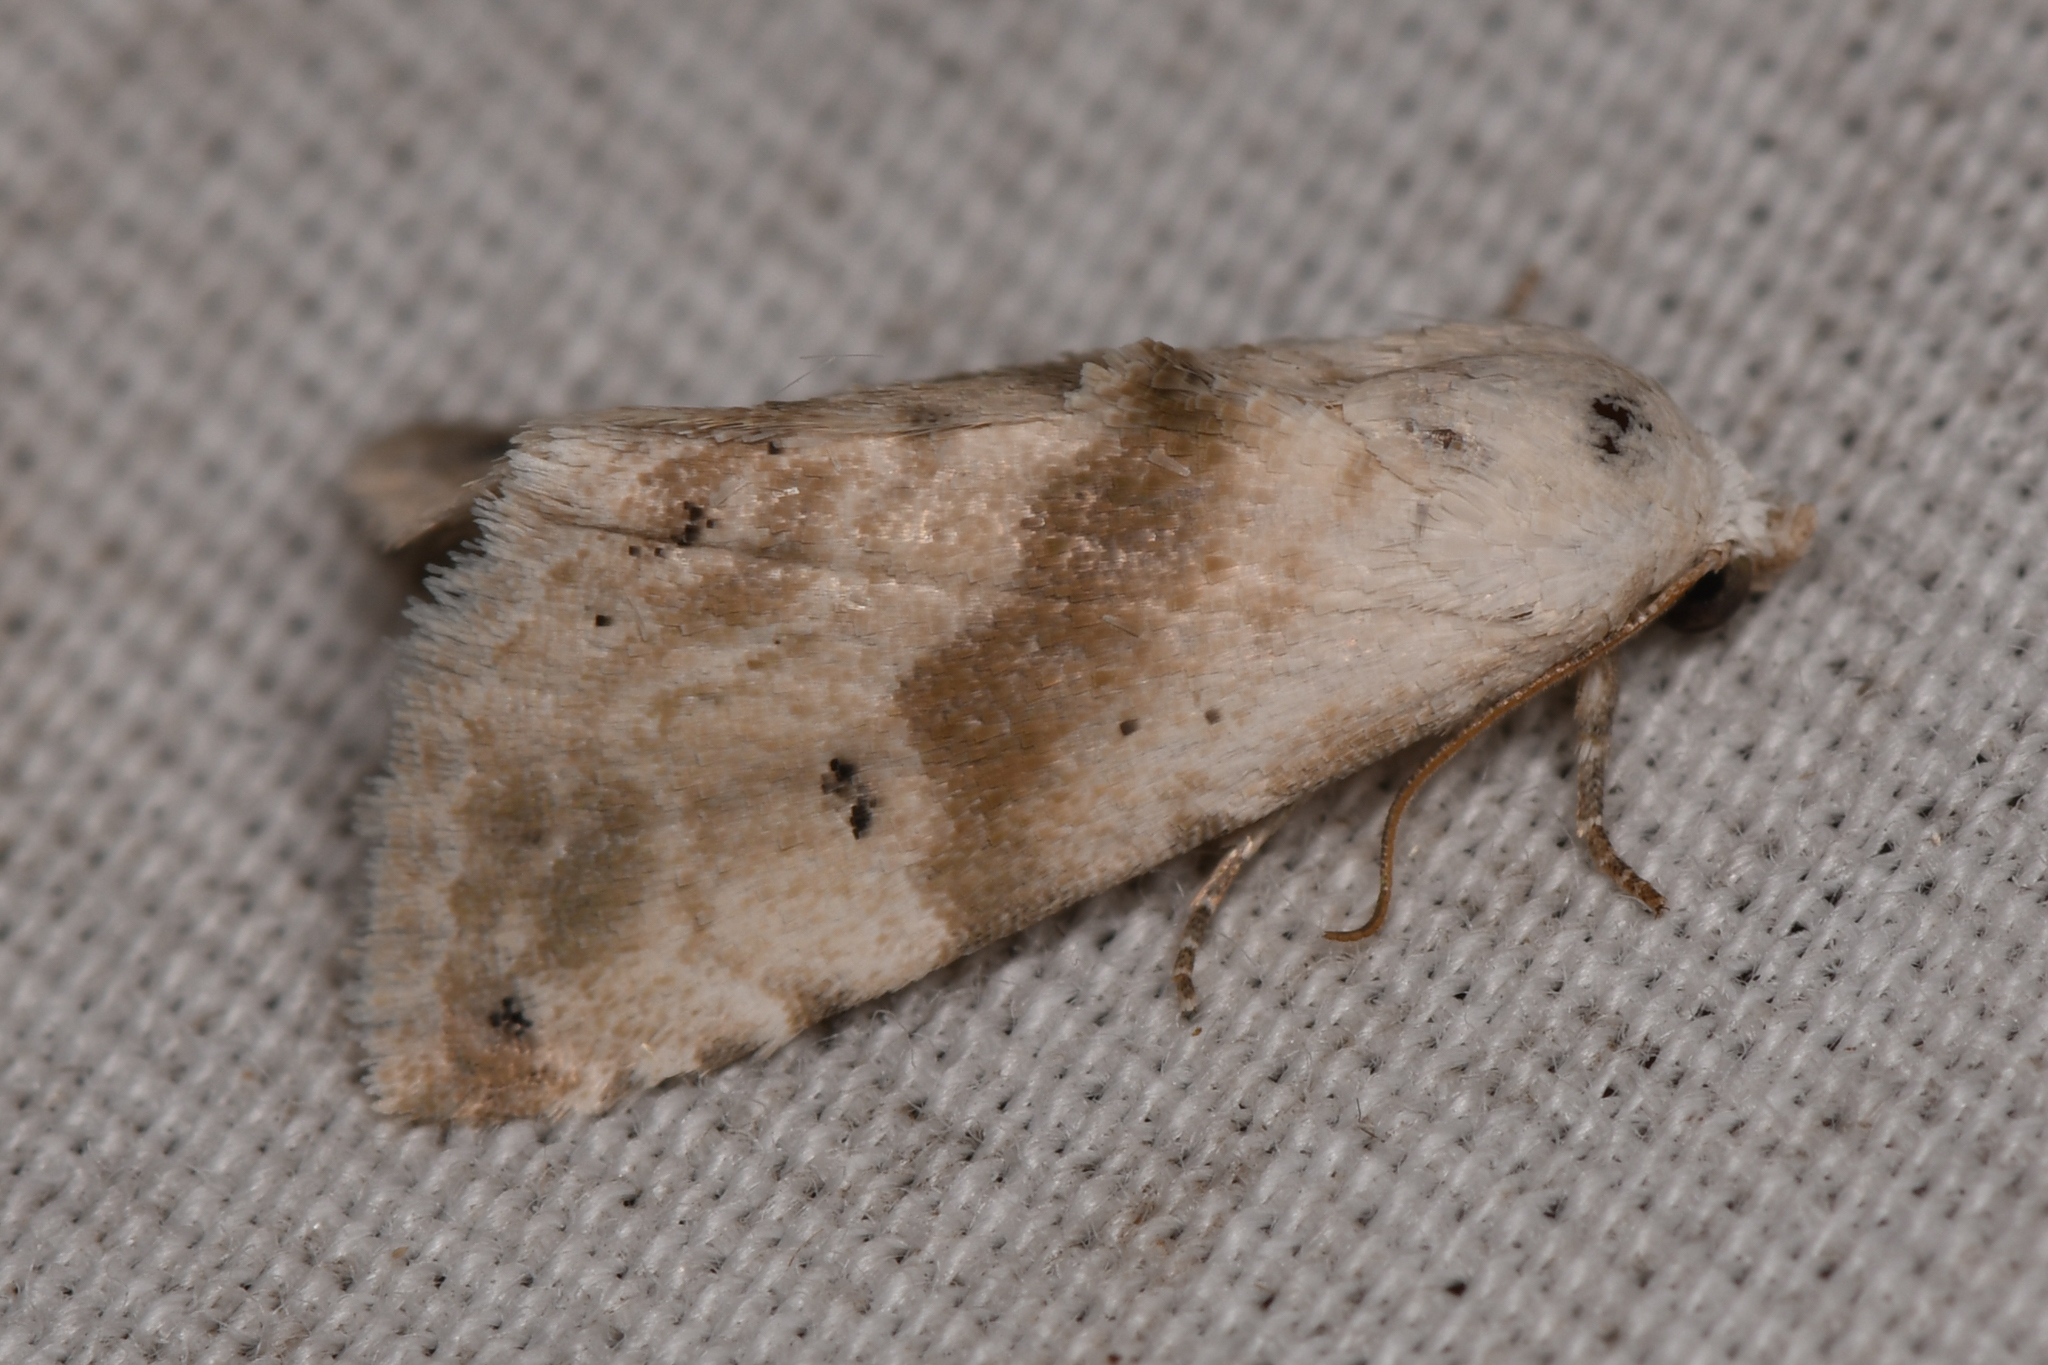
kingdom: Animalia
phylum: Arthropoda
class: Insecta
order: Lepidoptera
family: Noctuidae
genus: Eublemma
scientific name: Eublemma minima
